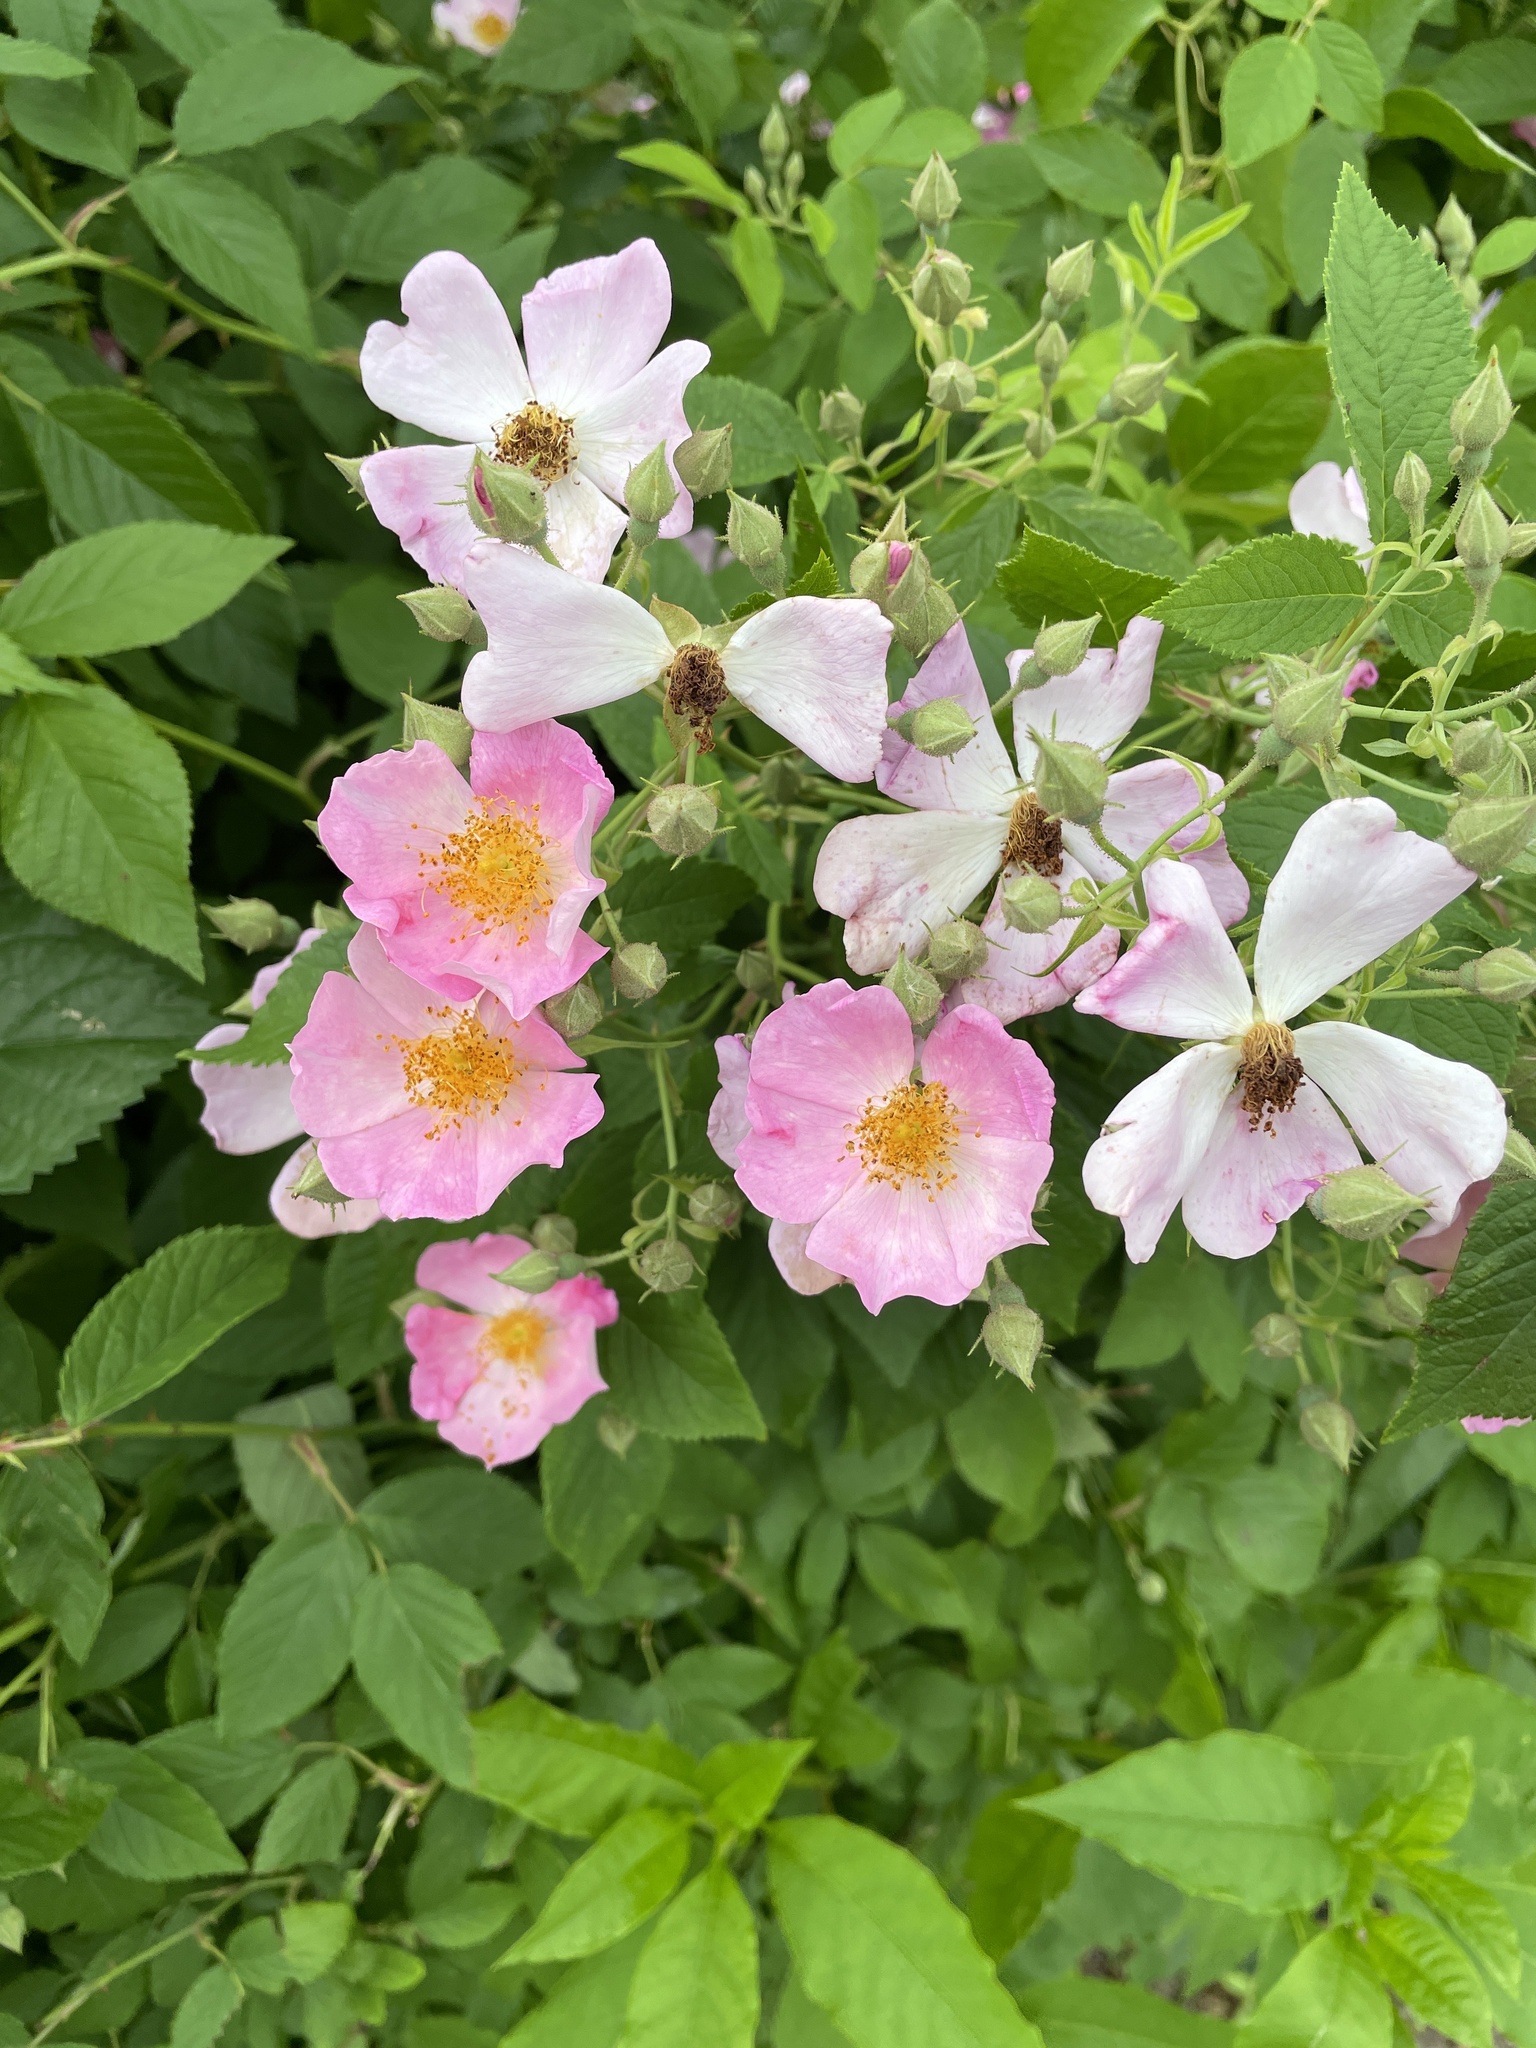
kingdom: Plantae
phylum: Tracheophyta
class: Magnoliopsida
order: Rosales
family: Rosaceae
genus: Rosa
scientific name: Rosa setigera
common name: Prairie rose
